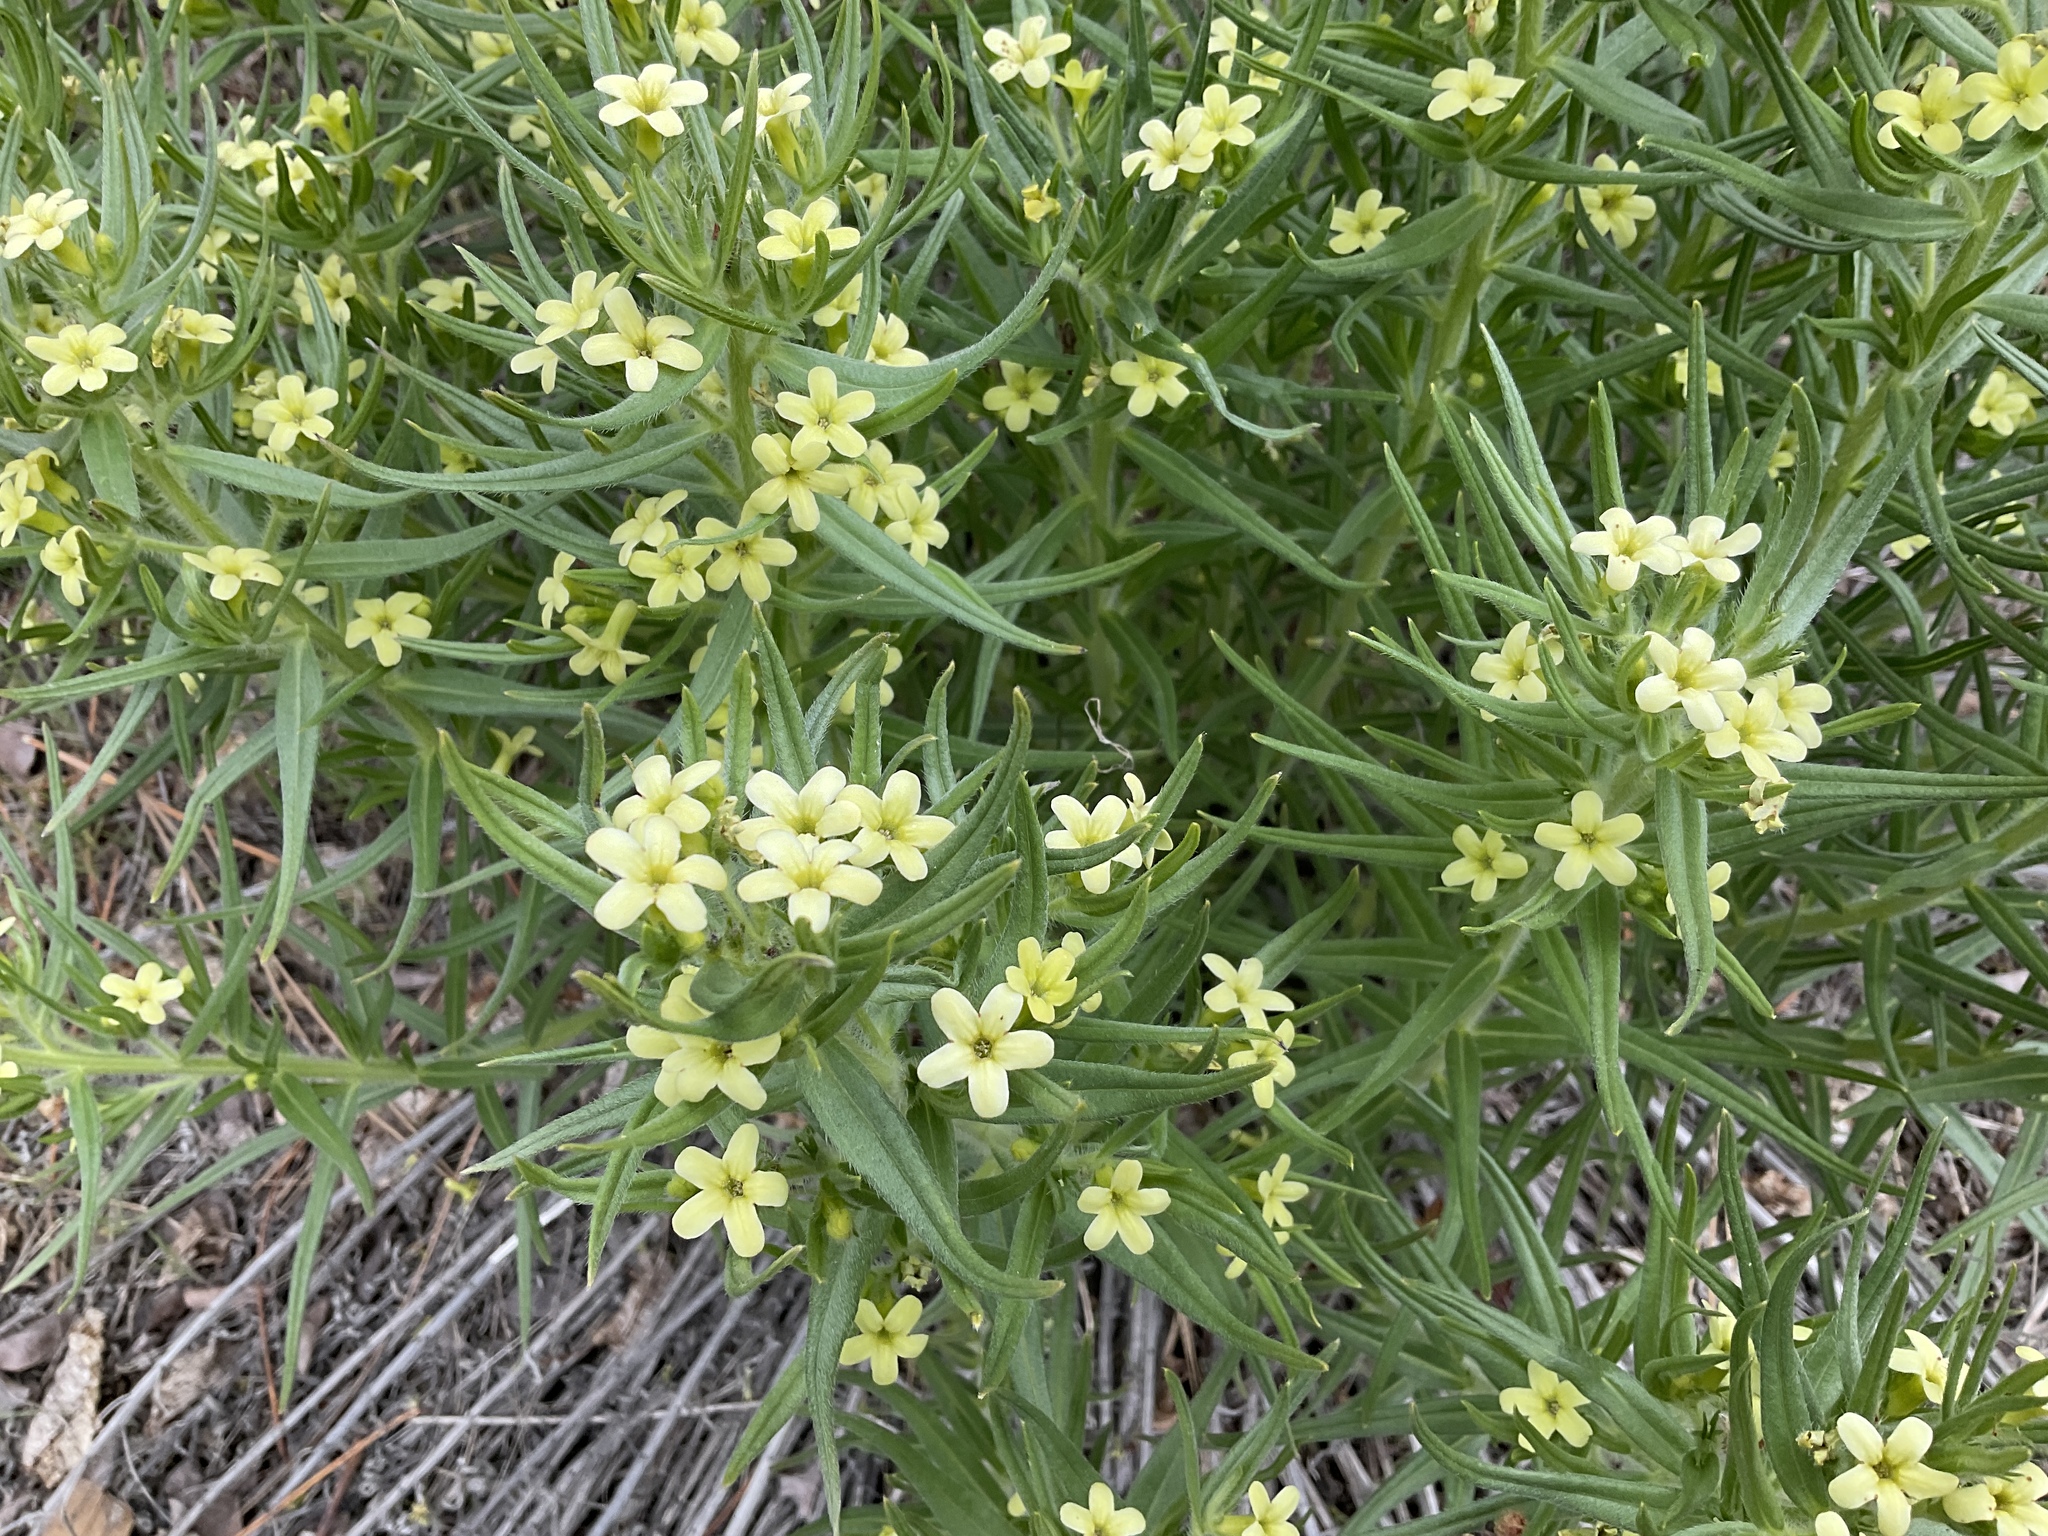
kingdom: Plantae
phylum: Tracheophyta
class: Magnoliopsida
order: Boraginales
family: Boraginaceae
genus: Lithospermum
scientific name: Lithospermum ruderale
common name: Western gromwell
